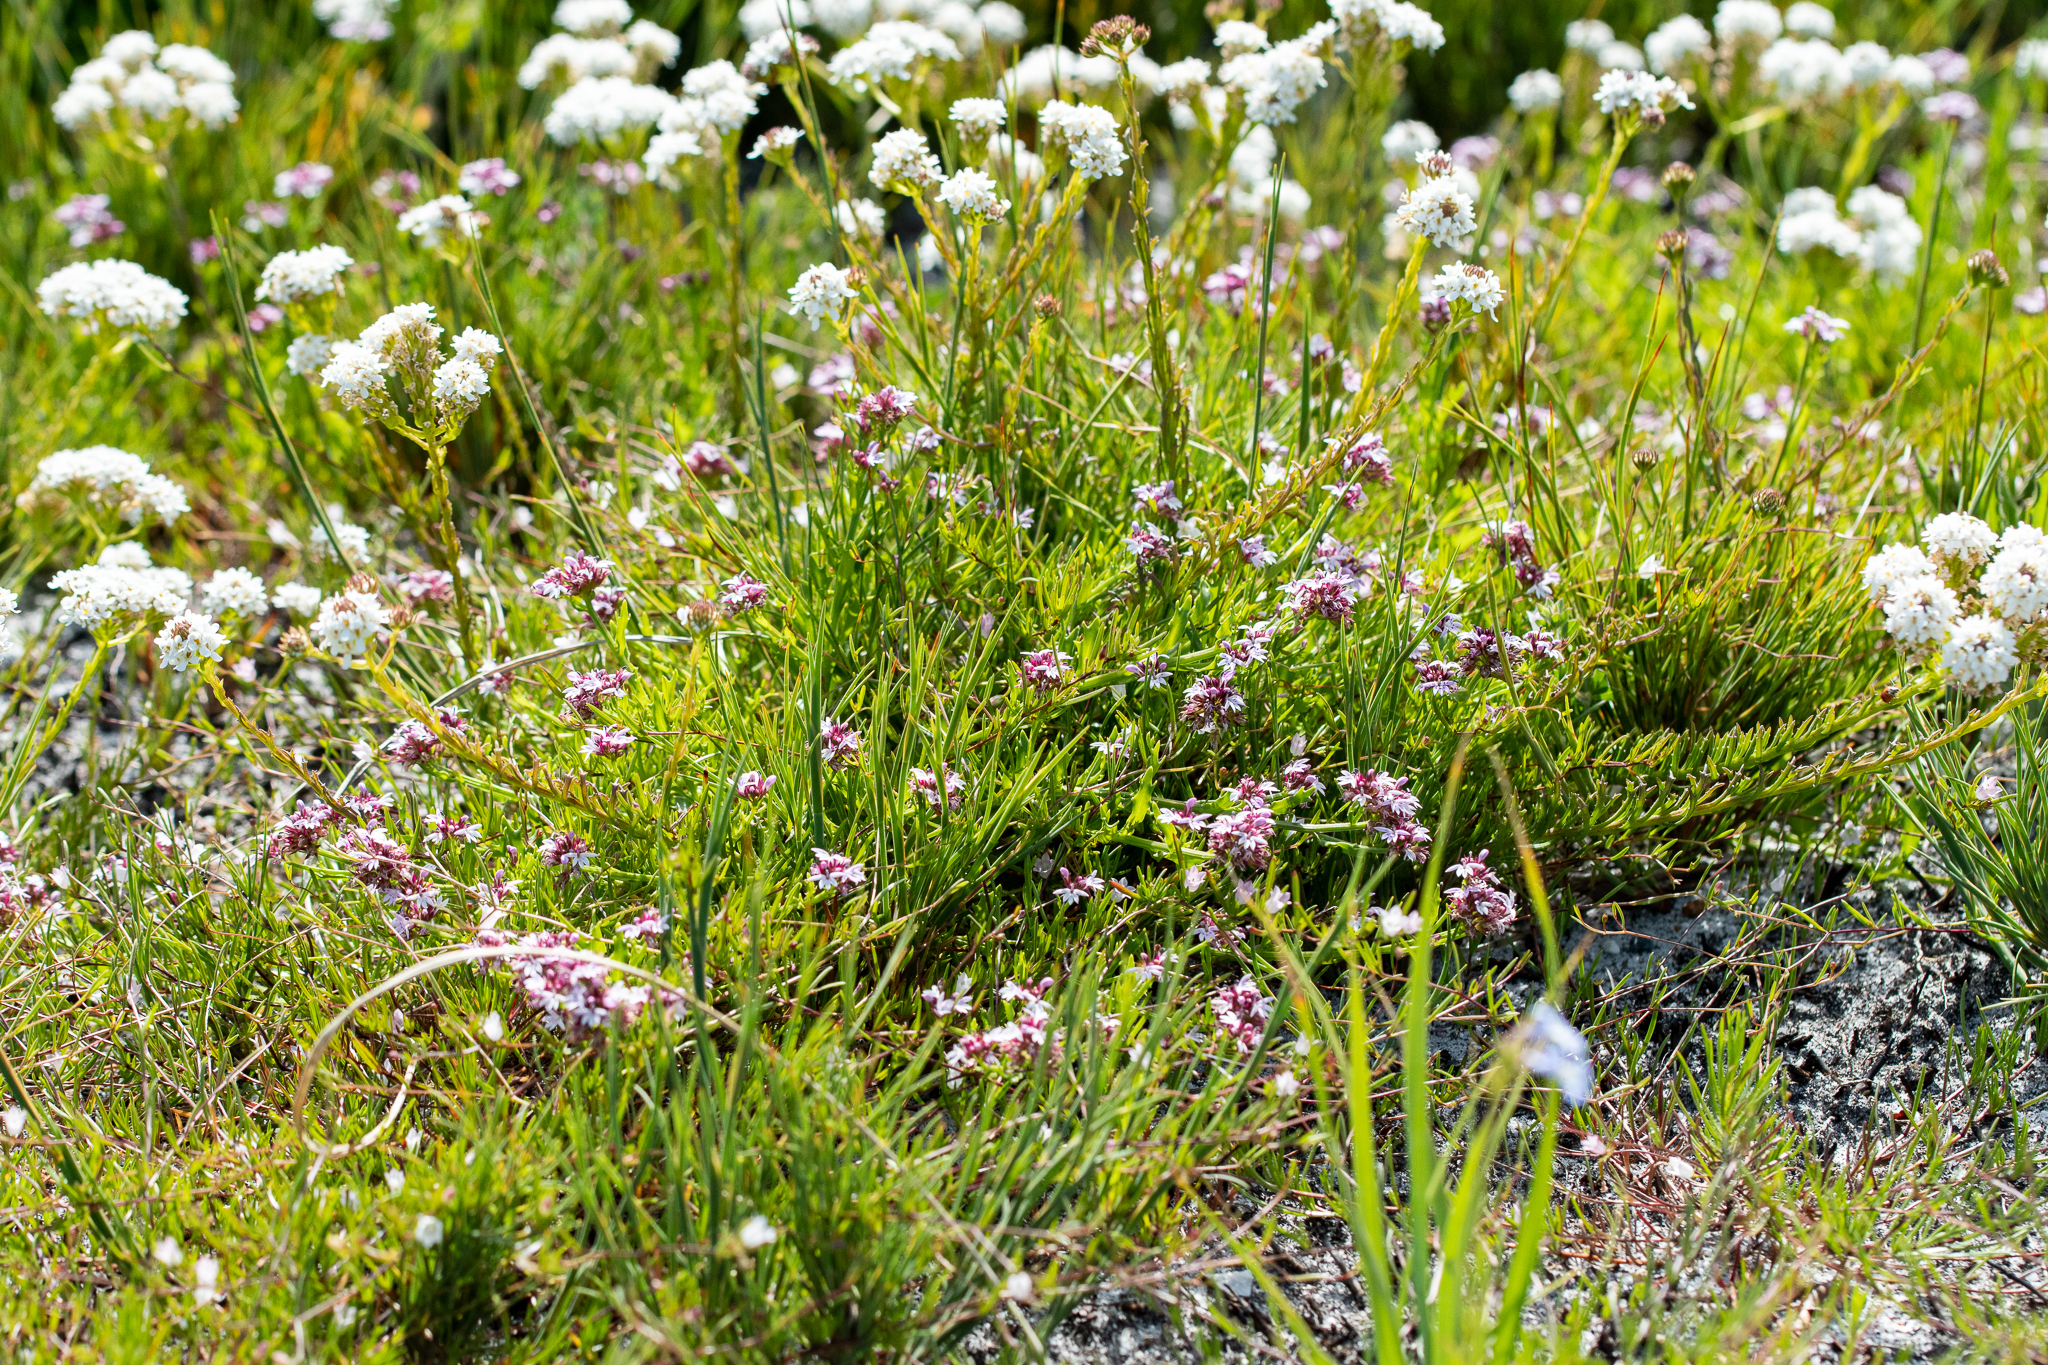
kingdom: Plantae
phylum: Tracheophyta
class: Magnoliopsida
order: Asterales
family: Campanulaceae
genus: Lobelia
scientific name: Lobelia jasionoides
